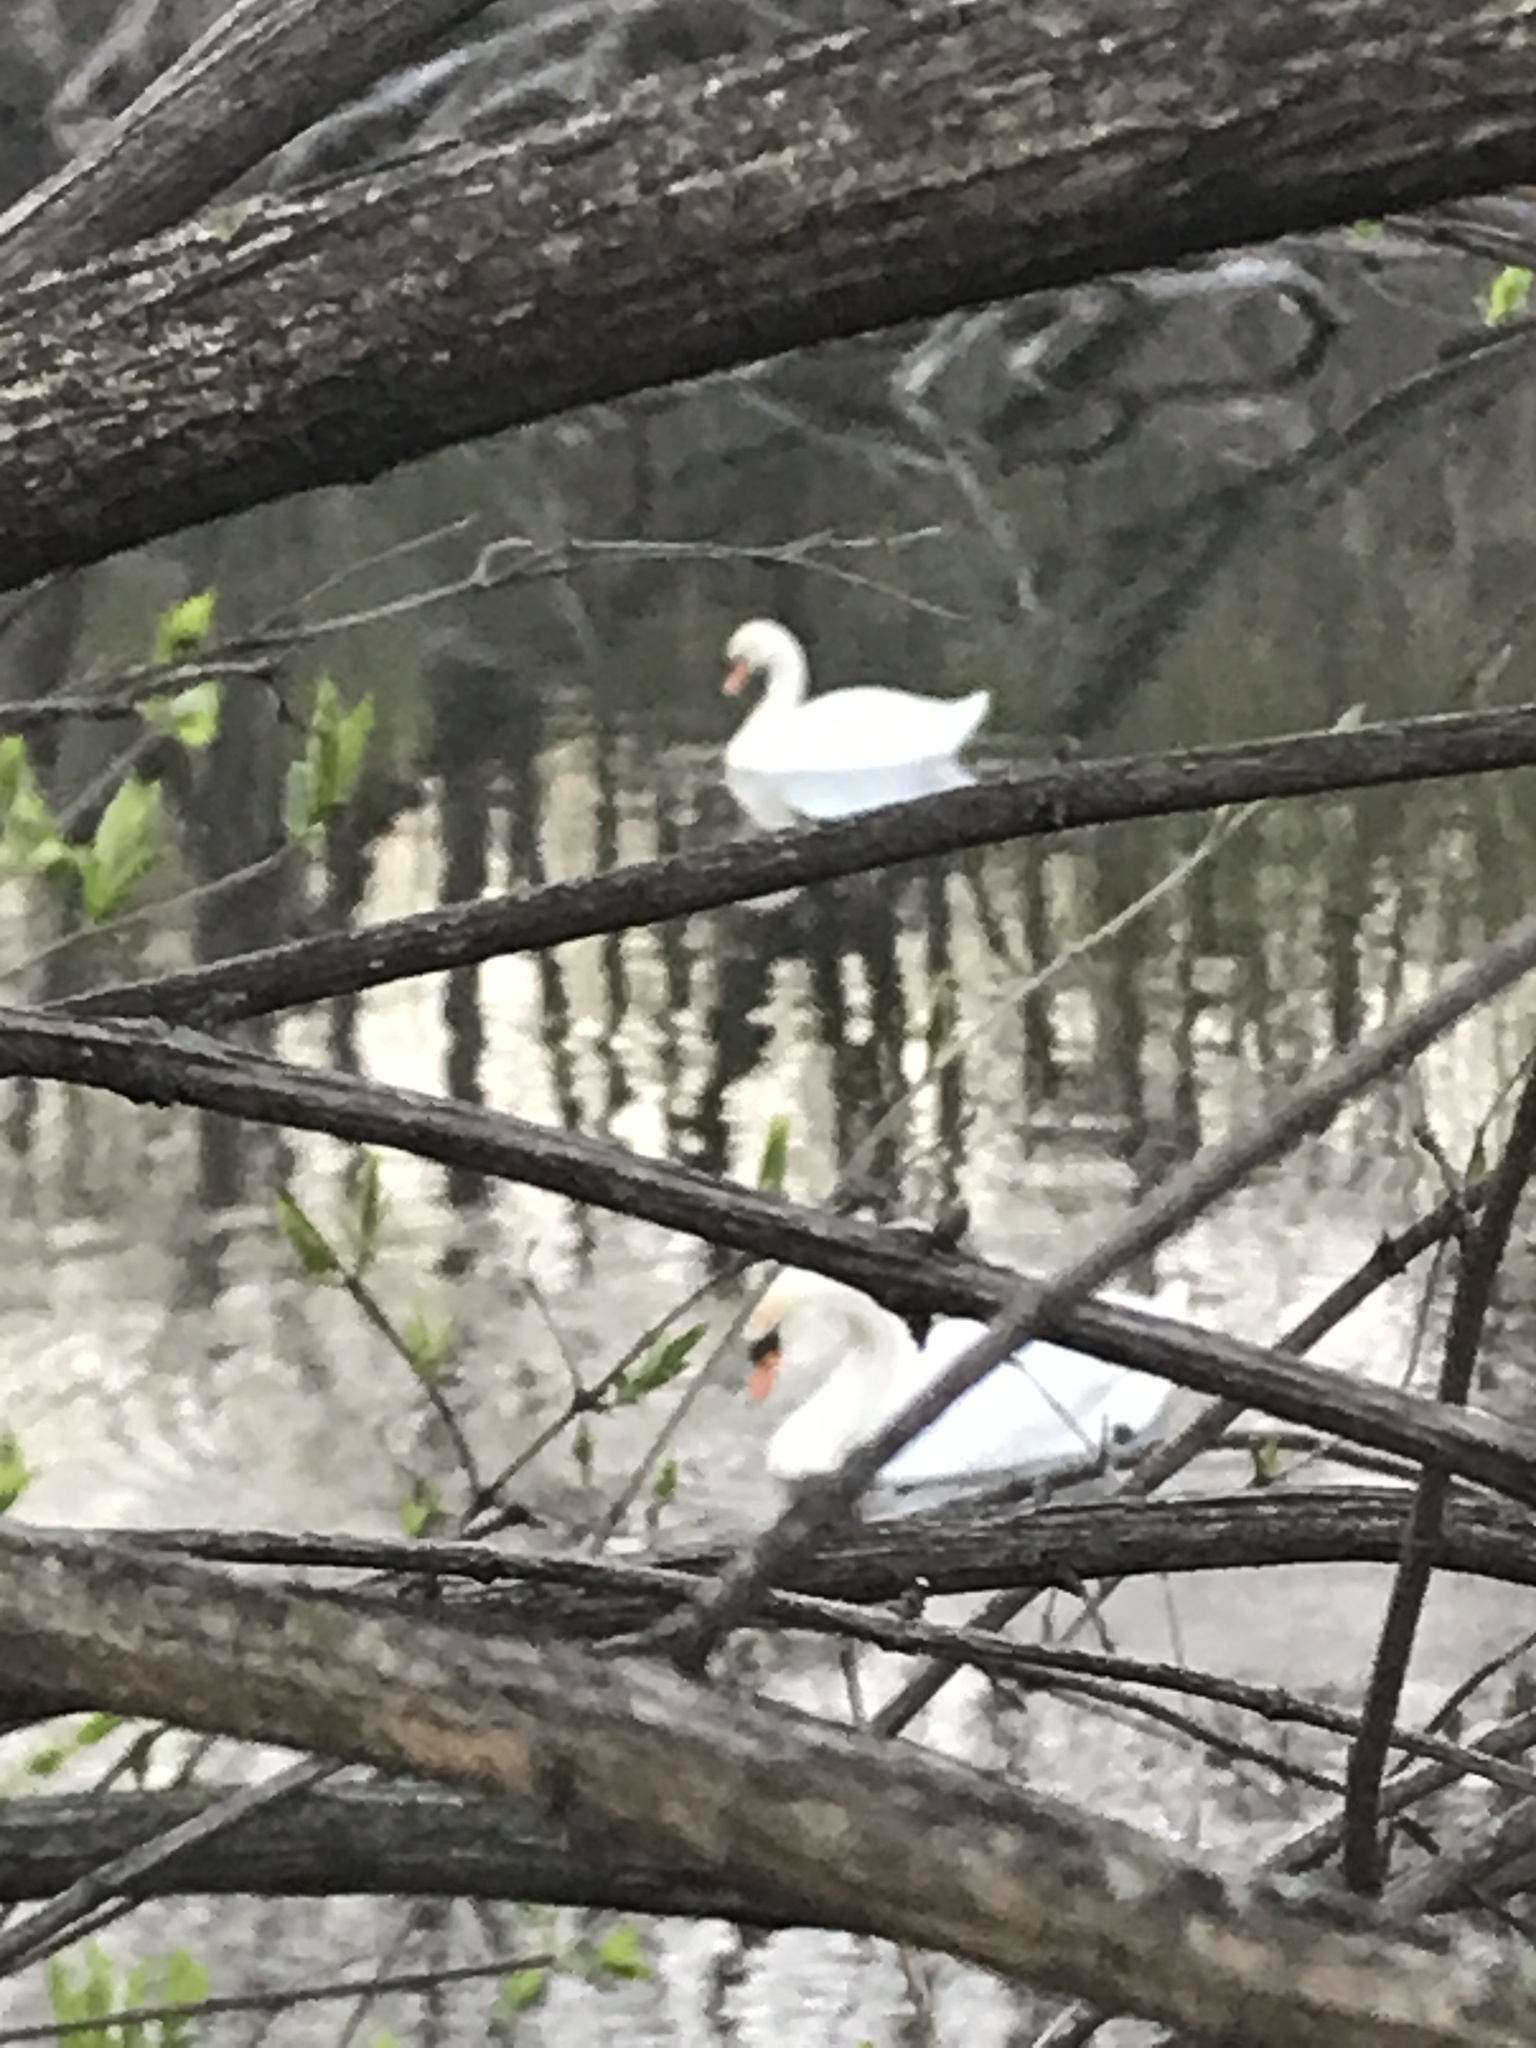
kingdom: Animalia
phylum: Chordata
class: Aves
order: Anseriformes
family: Anatidae
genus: Cygnus
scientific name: Cygnus olor
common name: Mute swan
